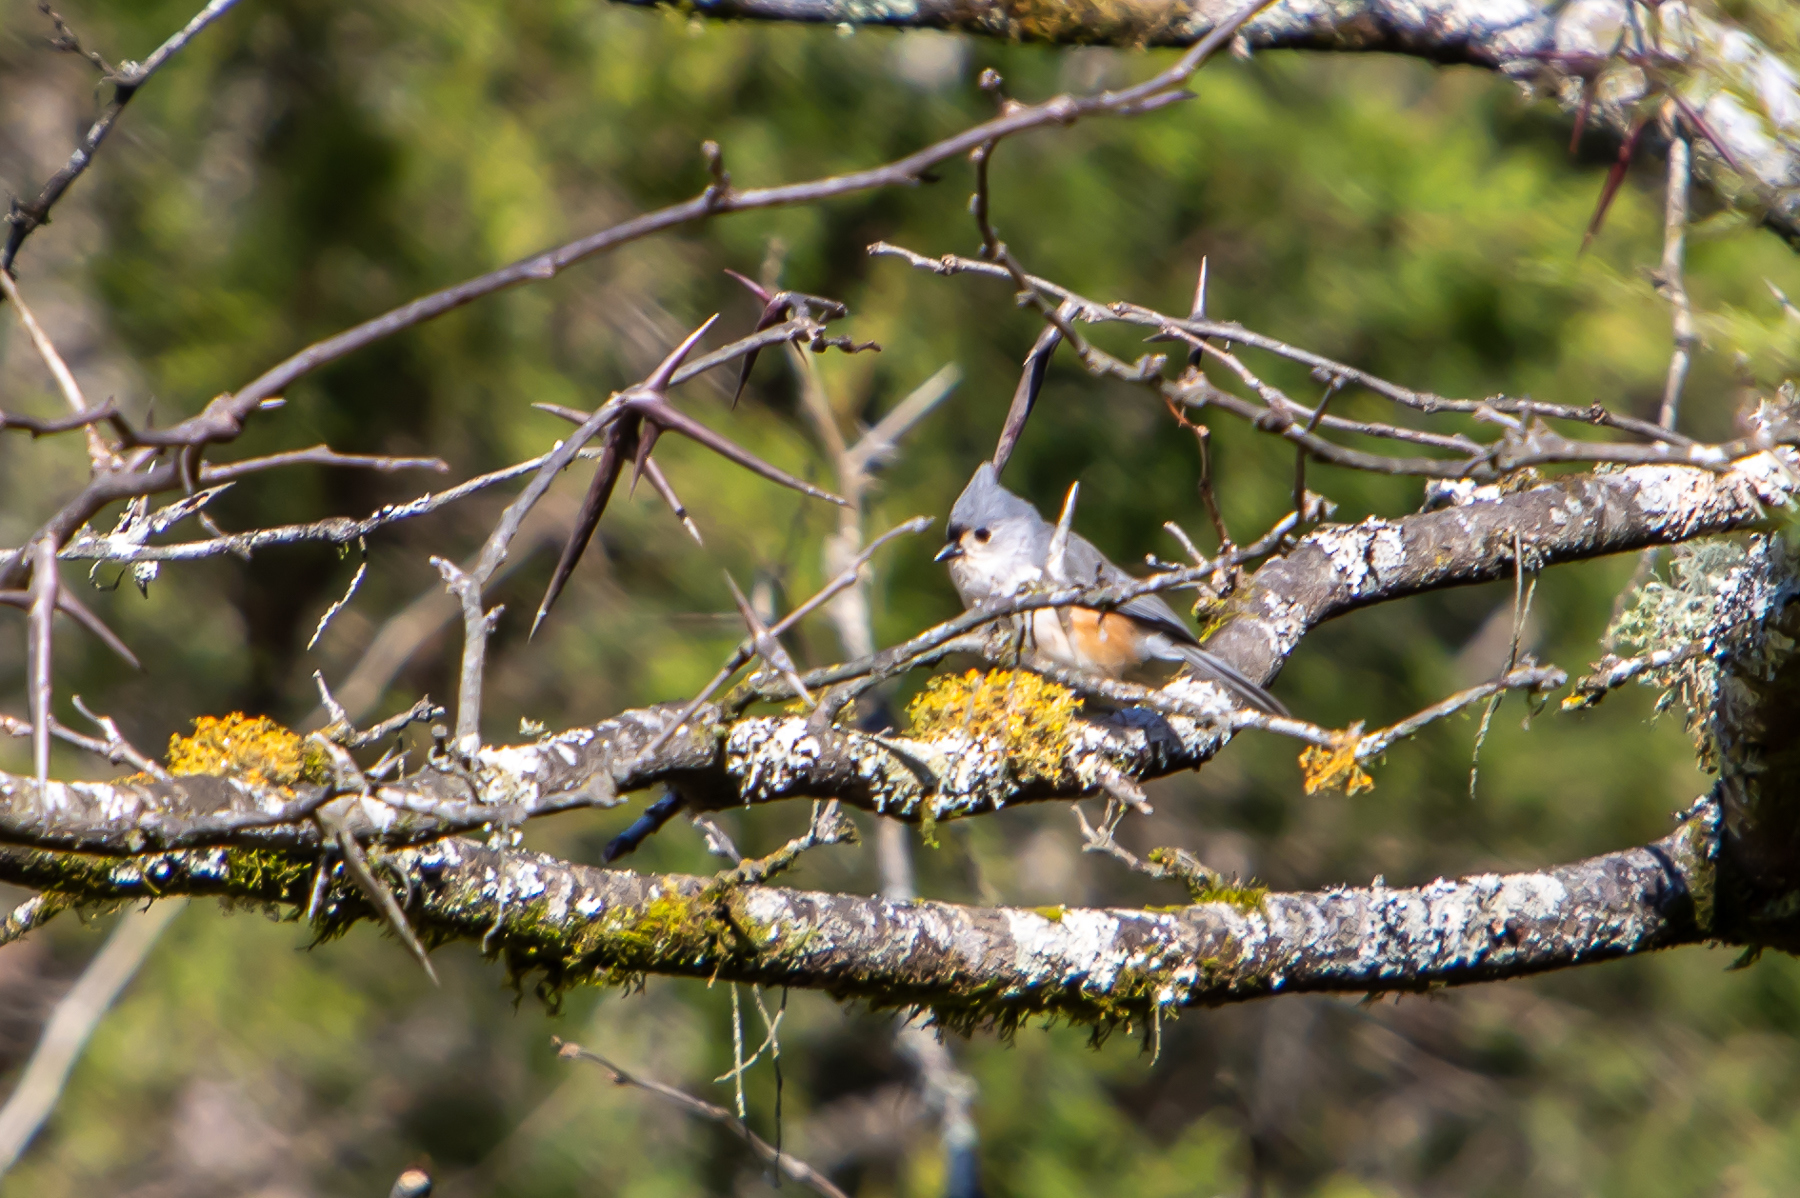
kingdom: Animalia
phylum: Chordata
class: Aves
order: Passeriformes
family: Paridae
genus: Baeolophus
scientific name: Baeolophus bicolor
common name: Tufted titmouse
